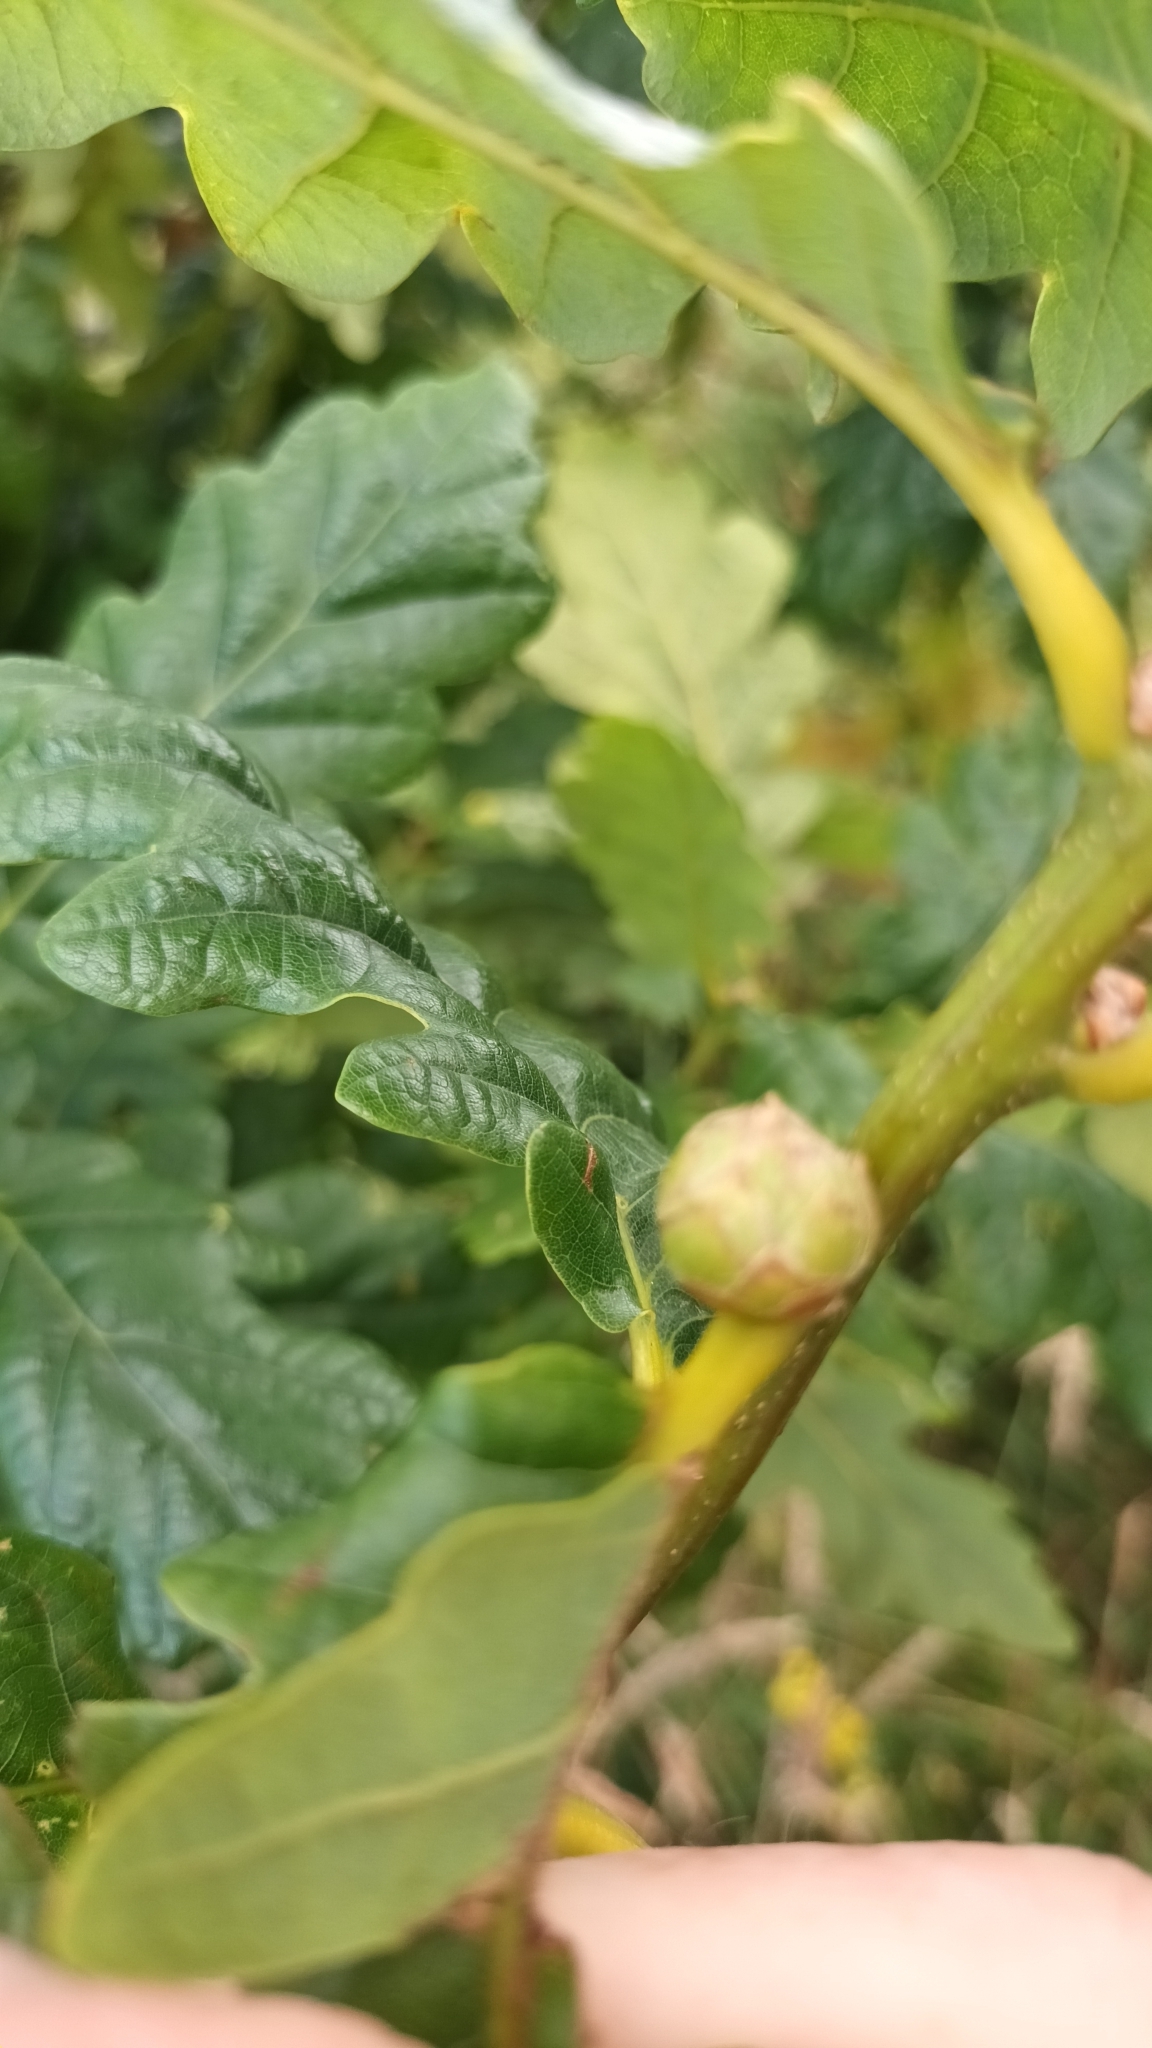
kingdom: Animalia
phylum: Arthropoda
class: Insecta
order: Hymenoptera
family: Cynipidae
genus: Andricus
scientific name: Andricus foecundatrix
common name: Artichoke gall
